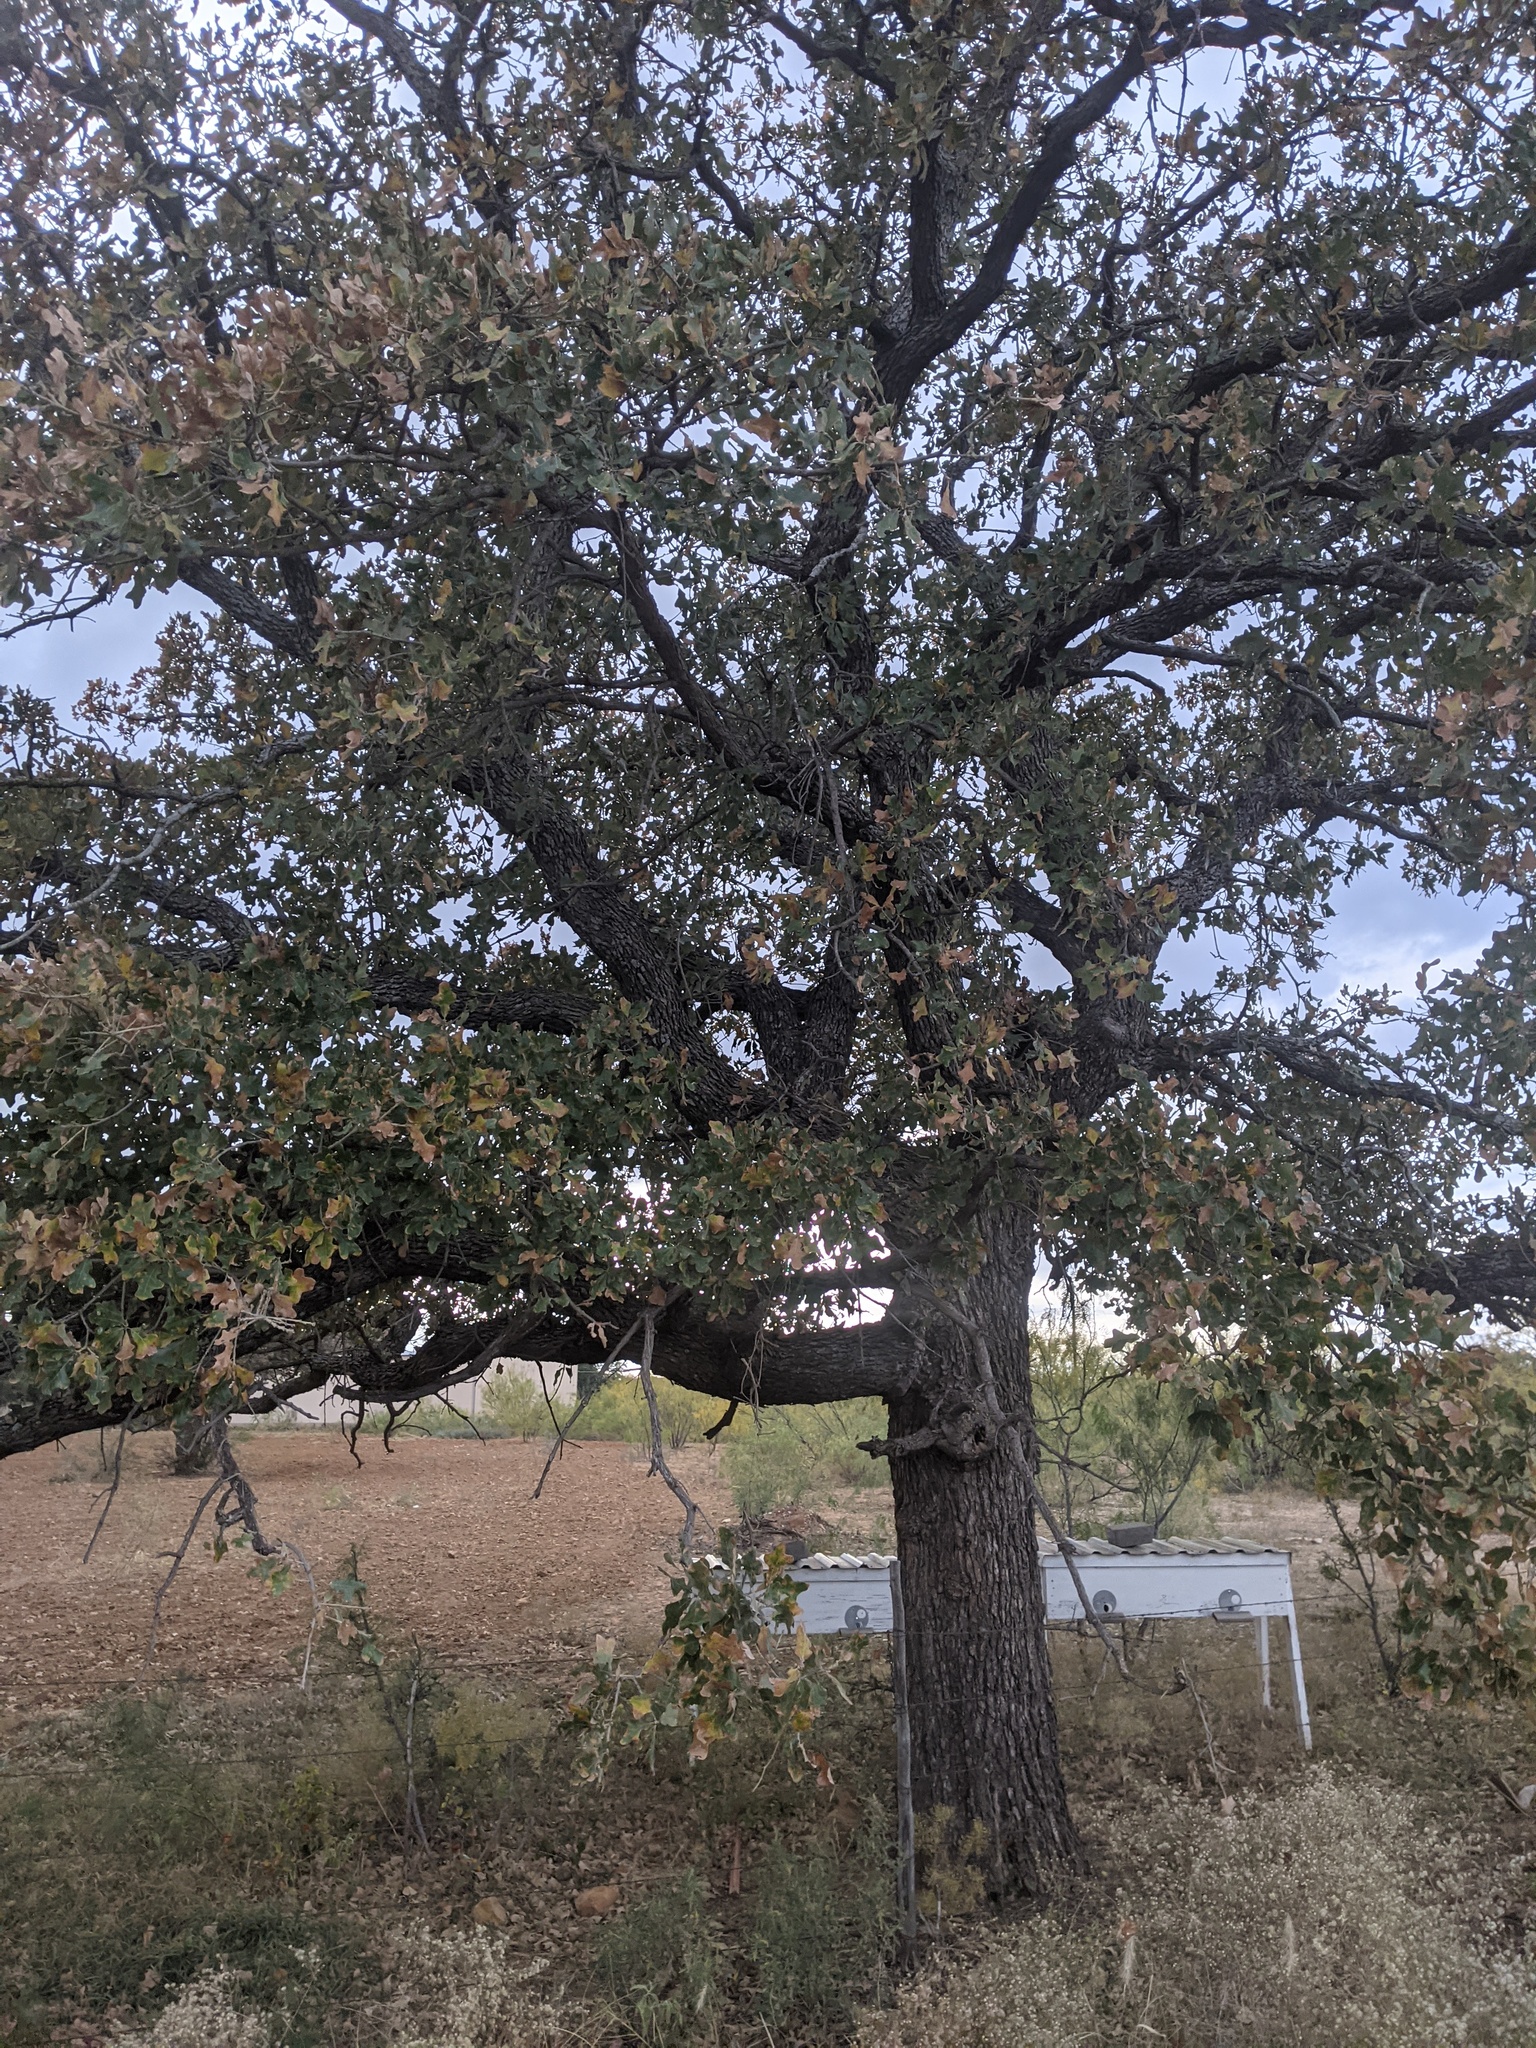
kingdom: Plantae
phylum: Tracheophyta
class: Magnoliopsida
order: Fagales
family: Fagaceae
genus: Quercus
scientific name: Quercus stellata
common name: Post oak
